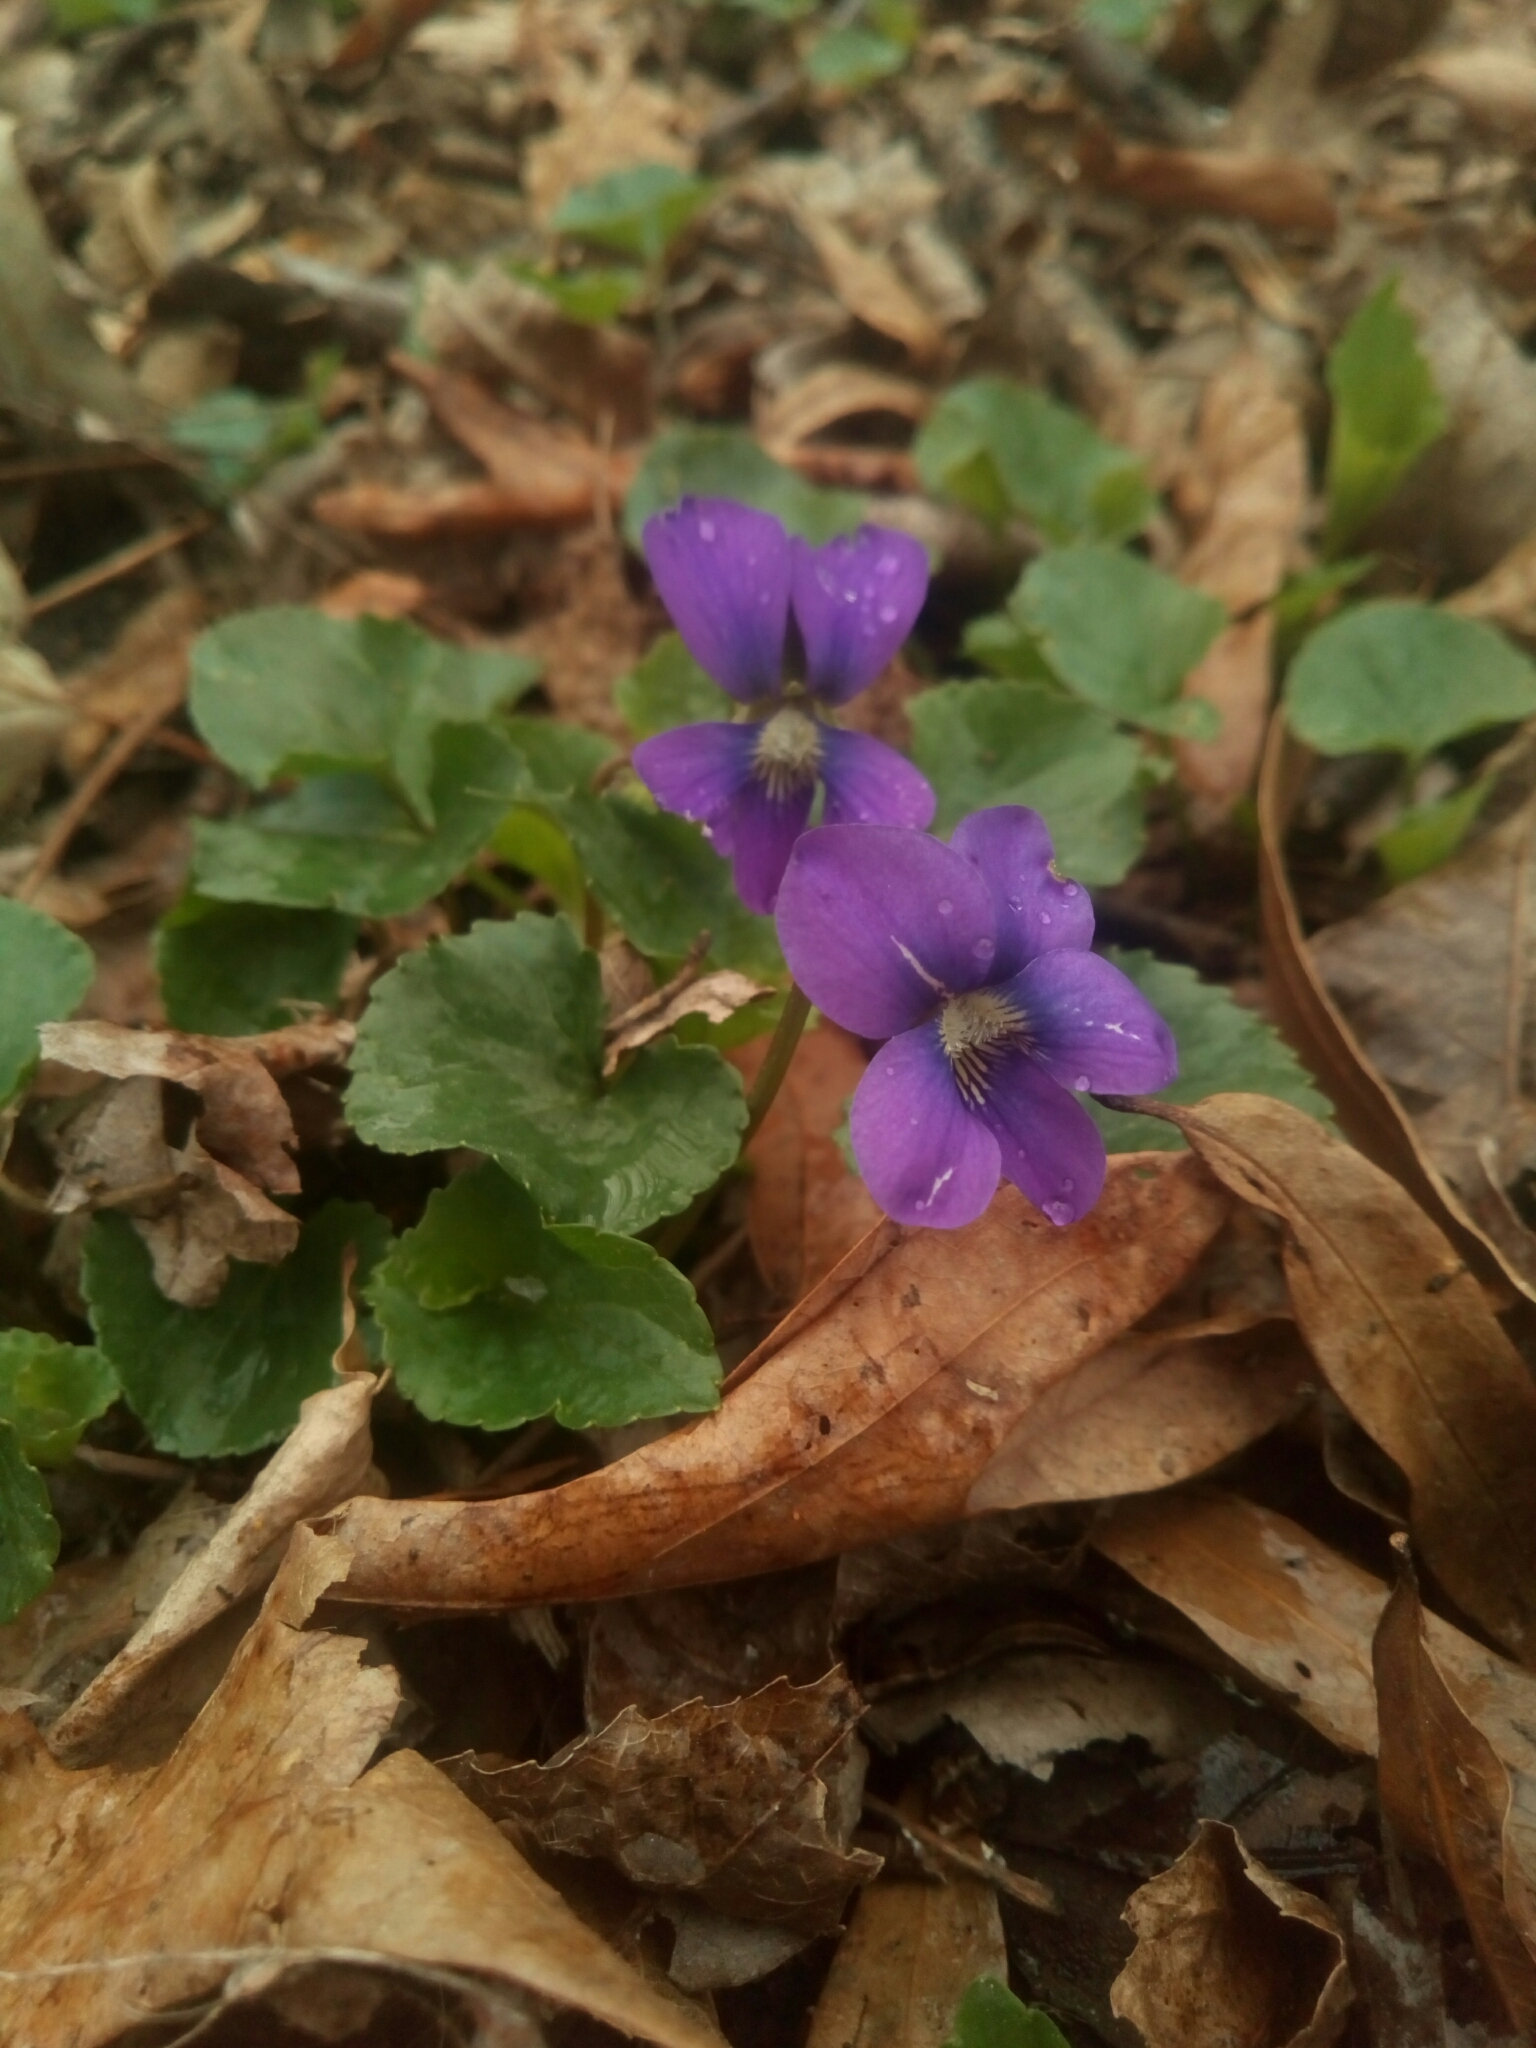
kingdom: Plantae
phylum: Tracheophyta
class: Magnoliopsida
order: Malpighiales
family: Violaceae
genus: Viola
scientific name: Viola sororia
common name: Dooryard violet
